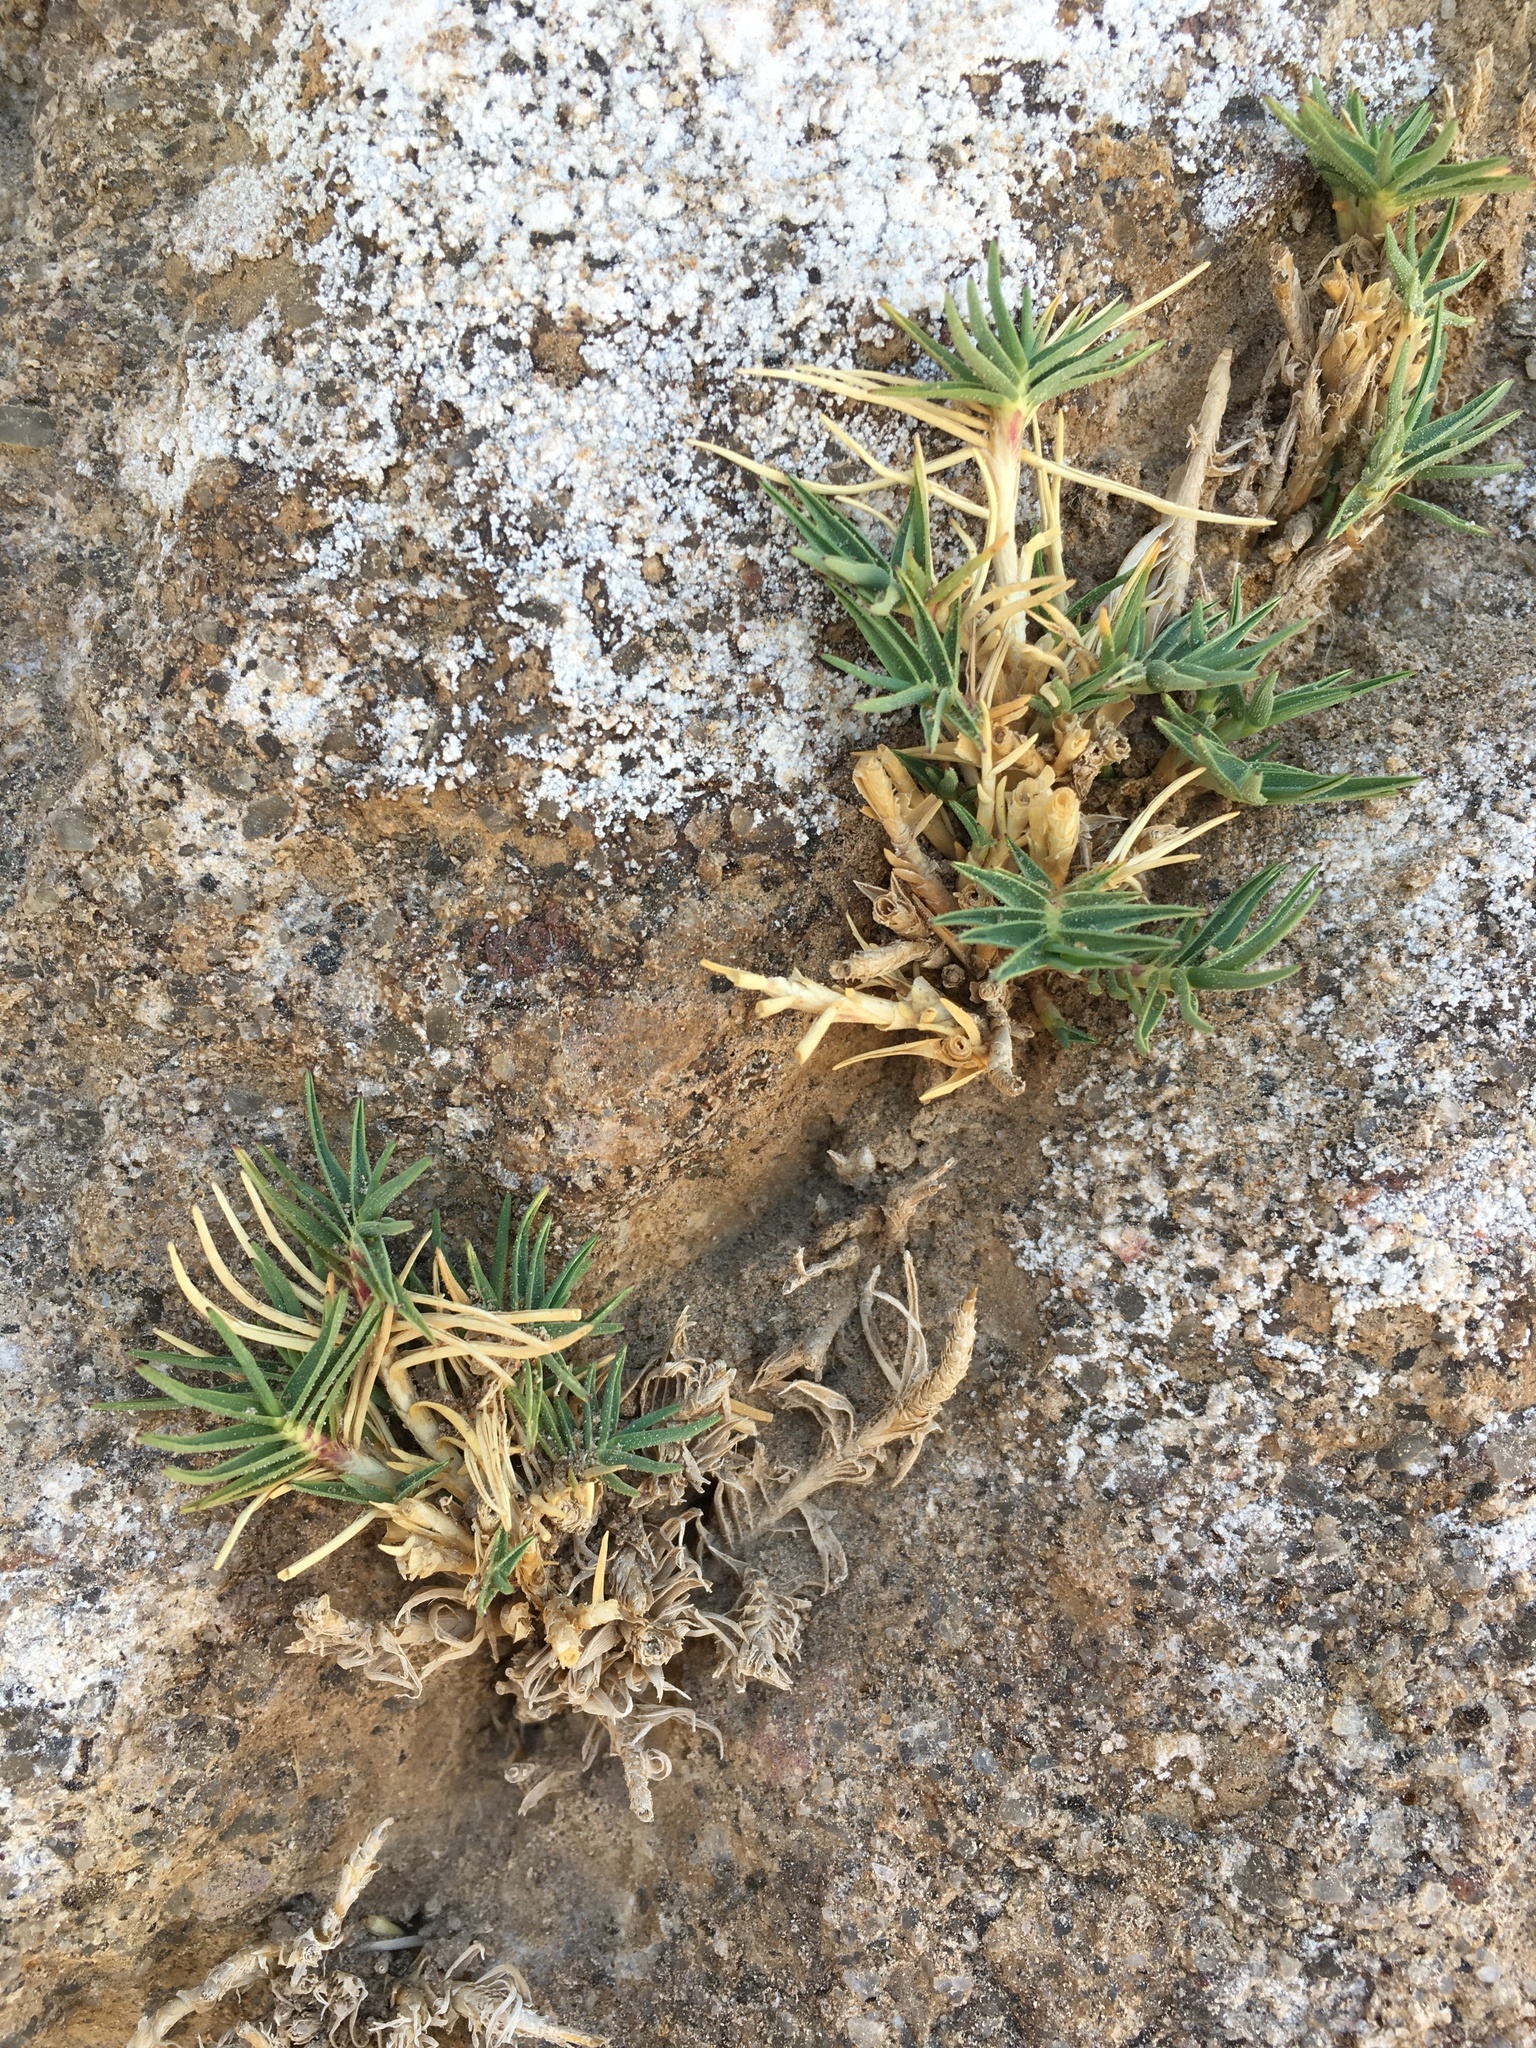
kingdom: Plantae
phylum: Tracheophyta
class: Liliopsida
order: Poales
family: Poaceae
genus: Distichlis
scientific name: Distichlis humilis
